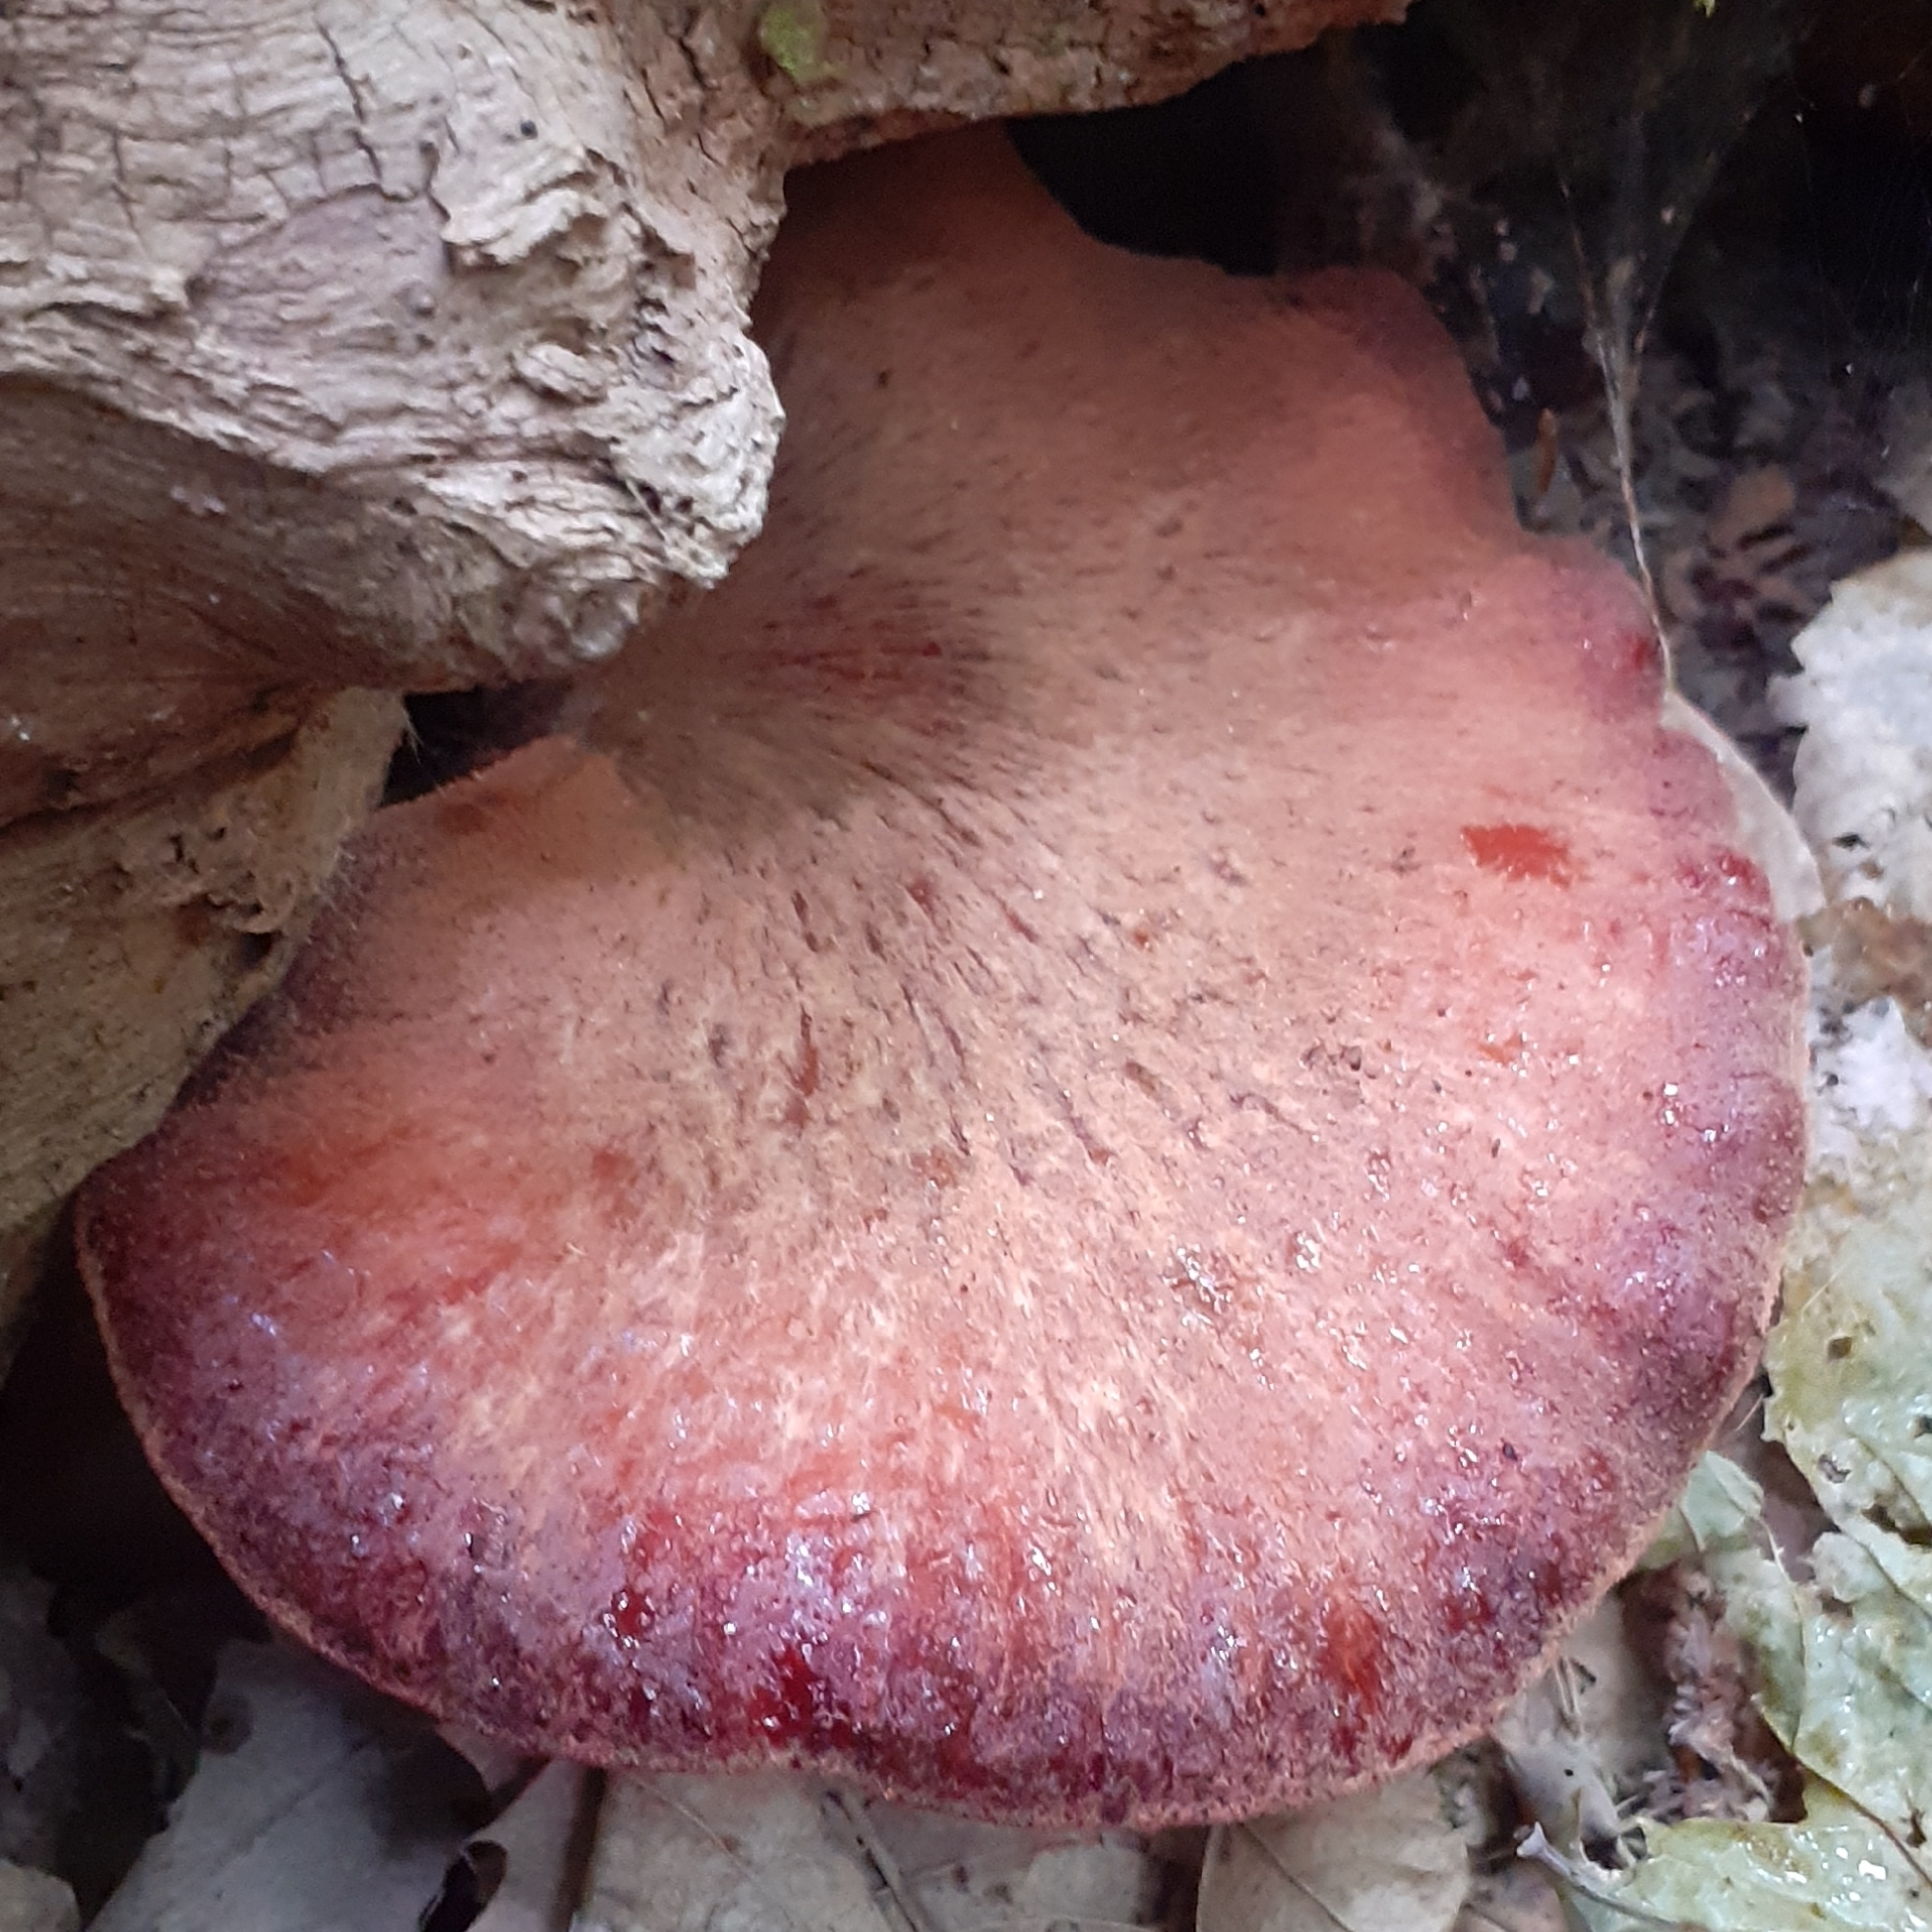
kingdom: Fungi
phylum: Basidiomycota
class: Agaricomycetes
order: Agaricales
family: Fistulinaceae
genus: Fistulina
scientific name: Fistulina hepatica
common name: Beef-steak fungus
